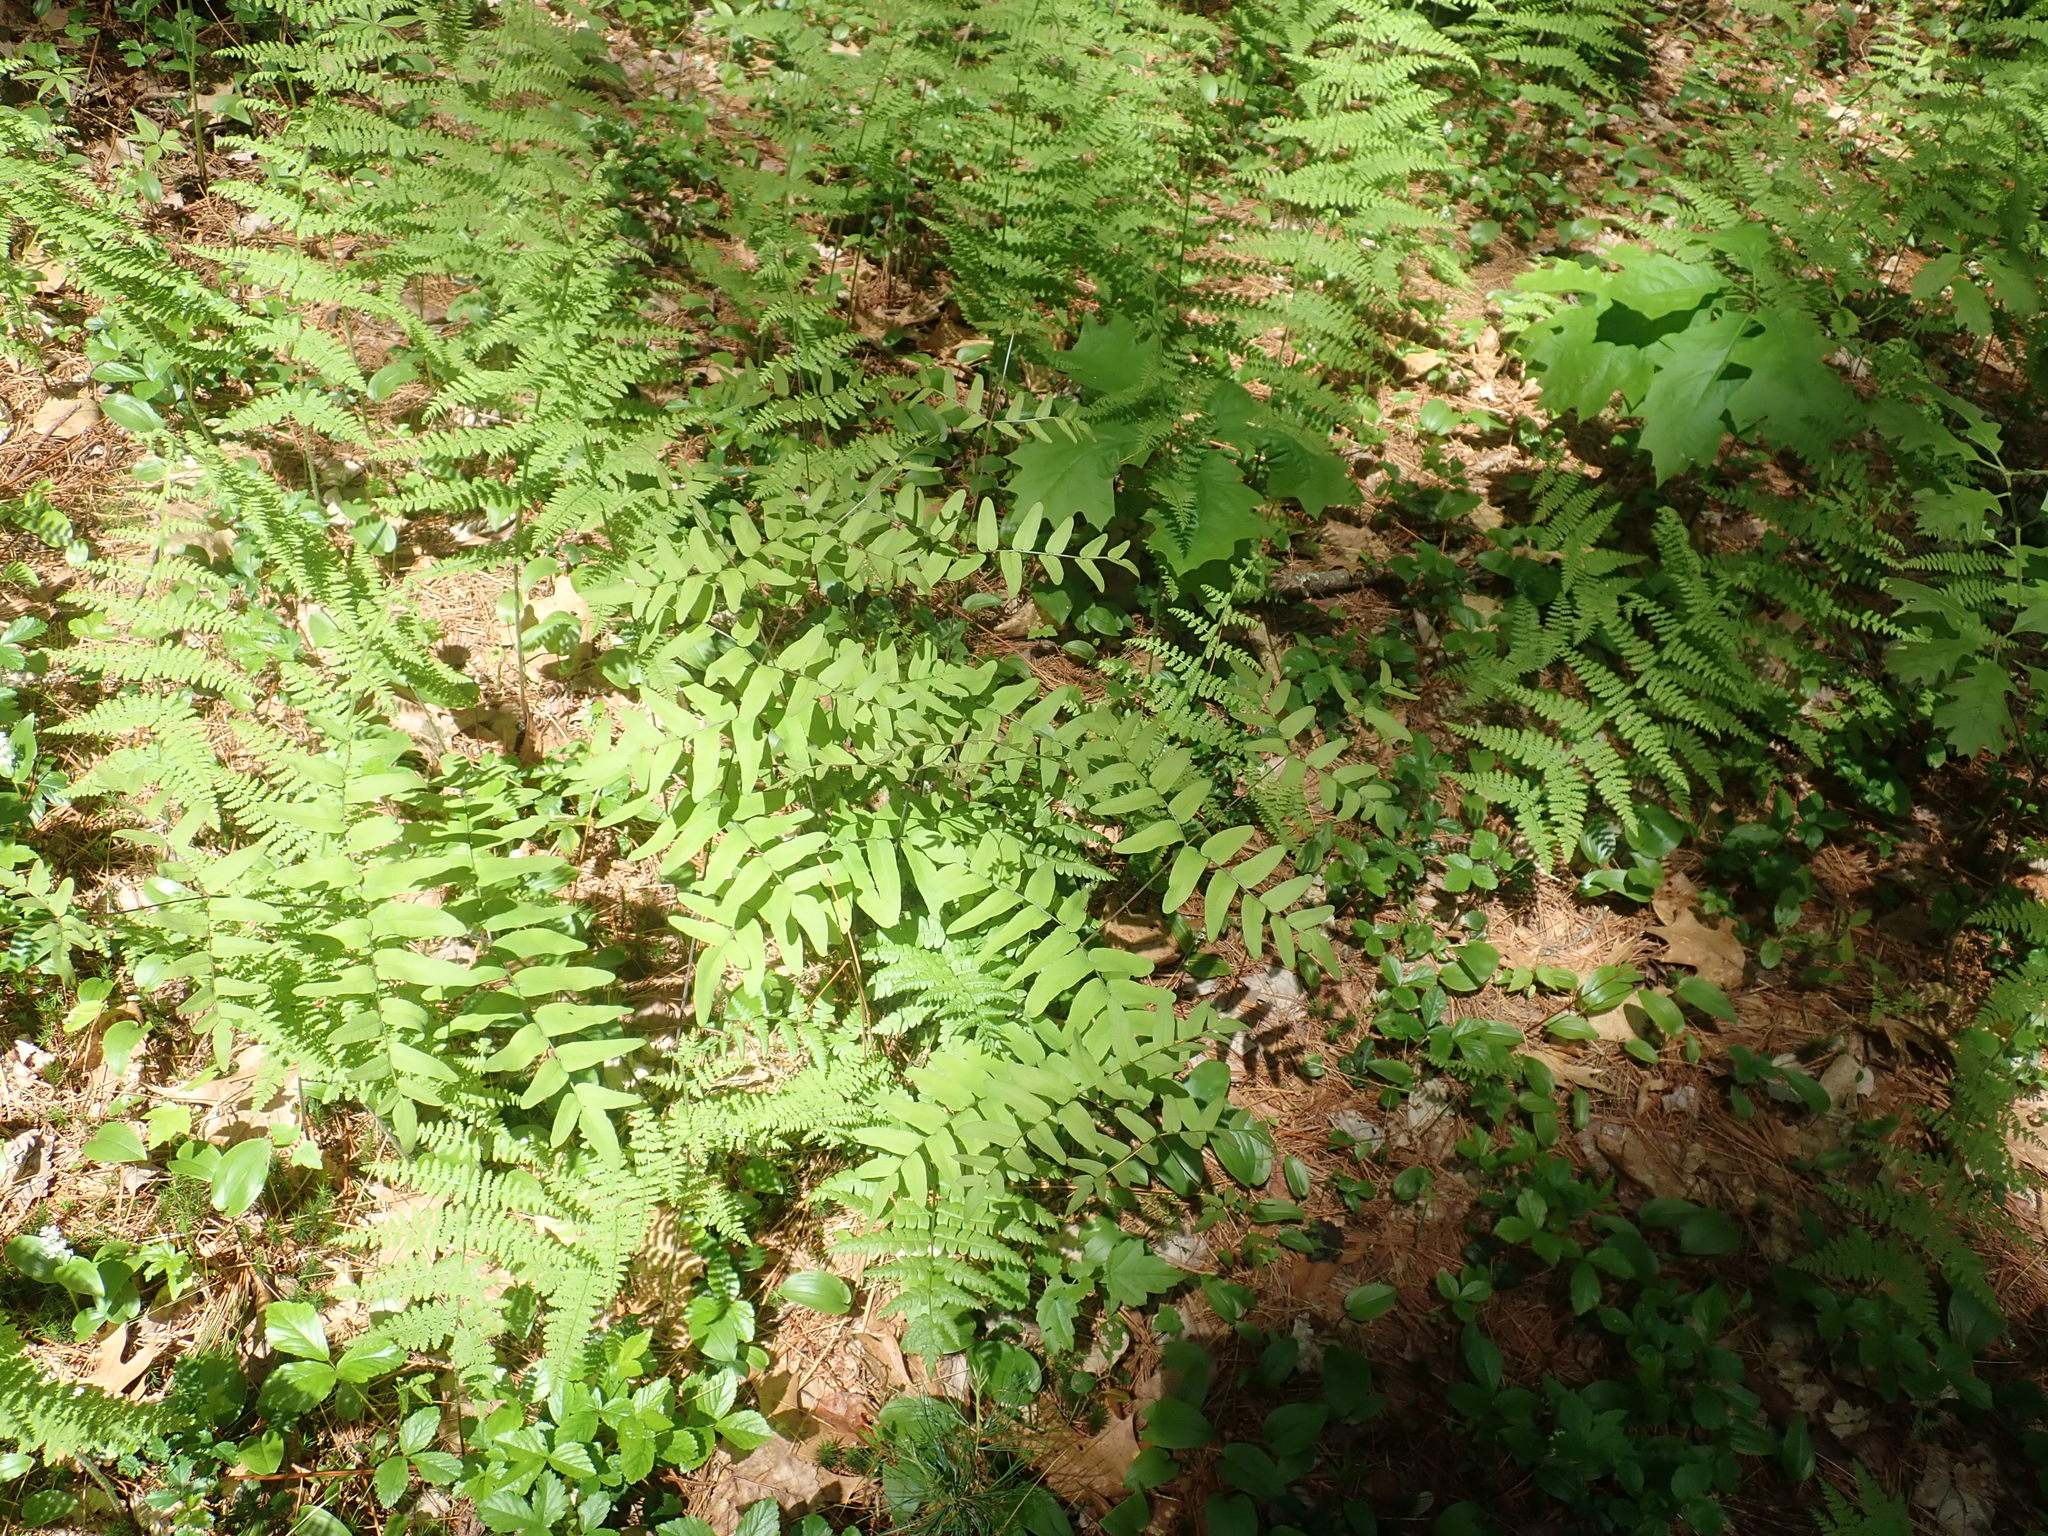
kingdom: Plantae
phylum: Tracheophyta
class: Polypodiopsida
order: Osmundales
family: Osmundaceae
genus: Osmunda
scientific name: Osmunda spectabilis
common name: American royal fern
